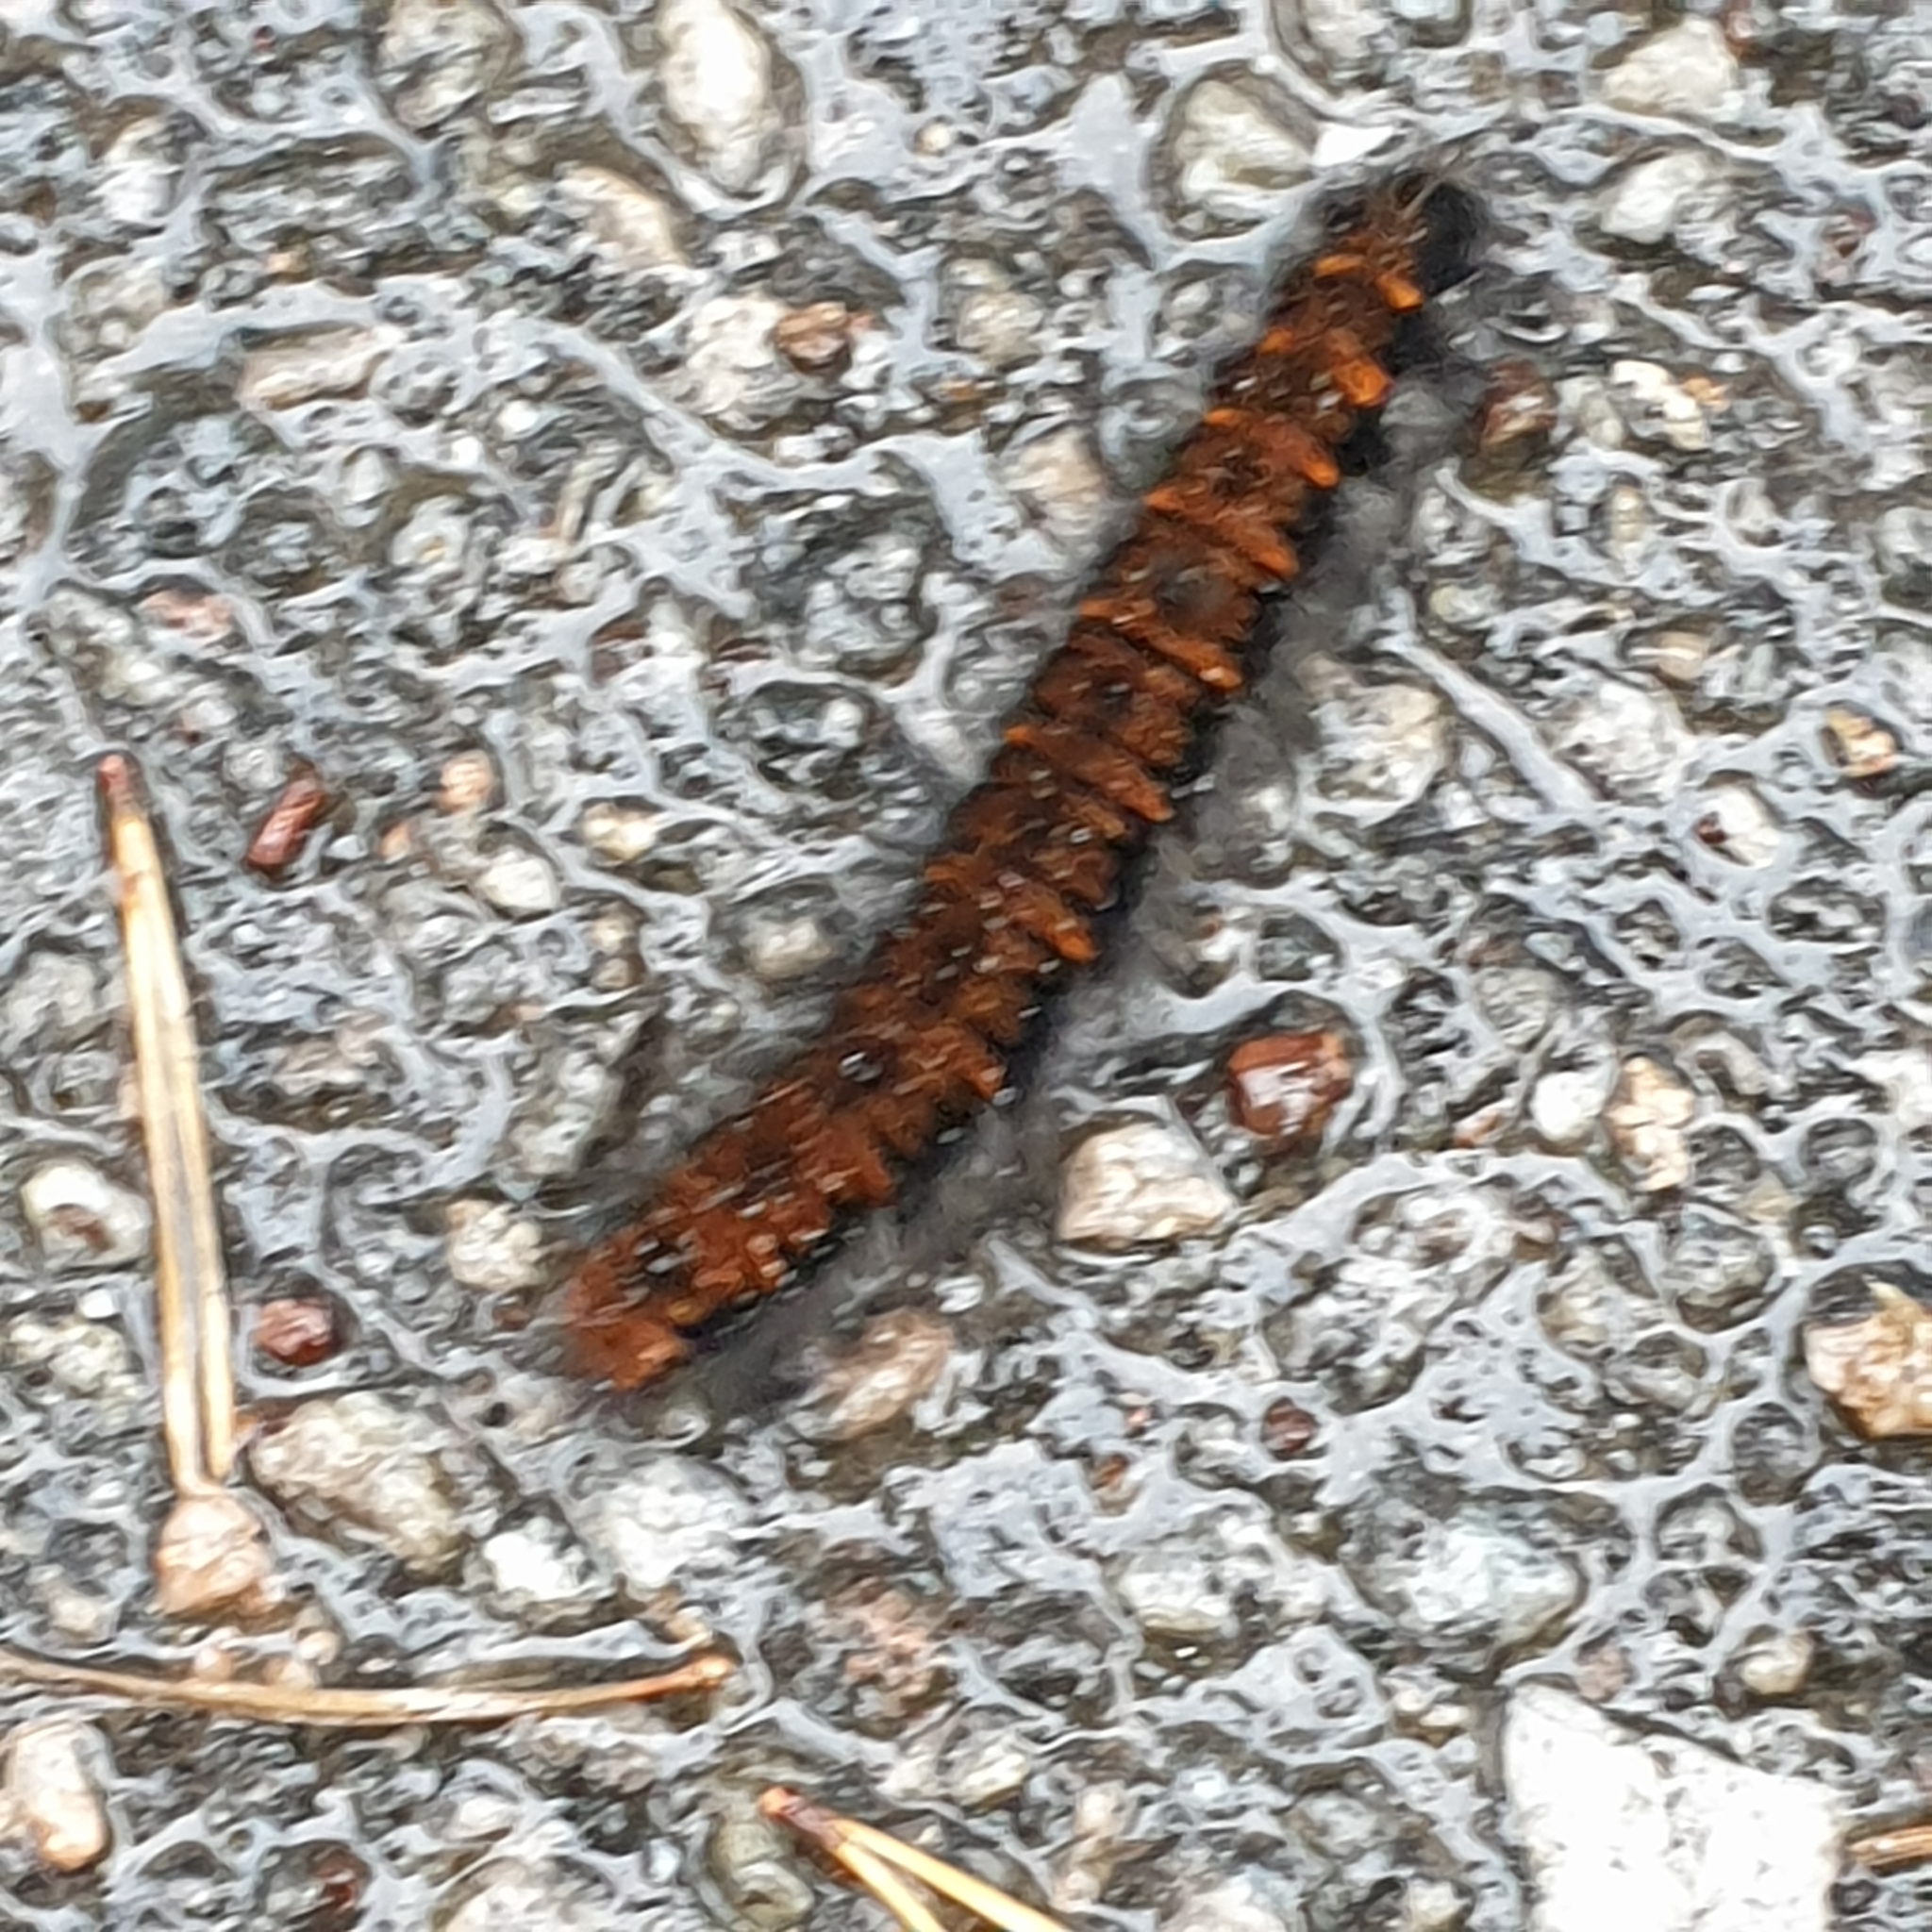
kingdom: Animalia
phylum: Arthropoda
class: Insecta
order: Lepidoptera
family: Lasiocampidae
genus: Macrothylacia
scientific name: Macrothylacia rubi
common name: Fox moth
